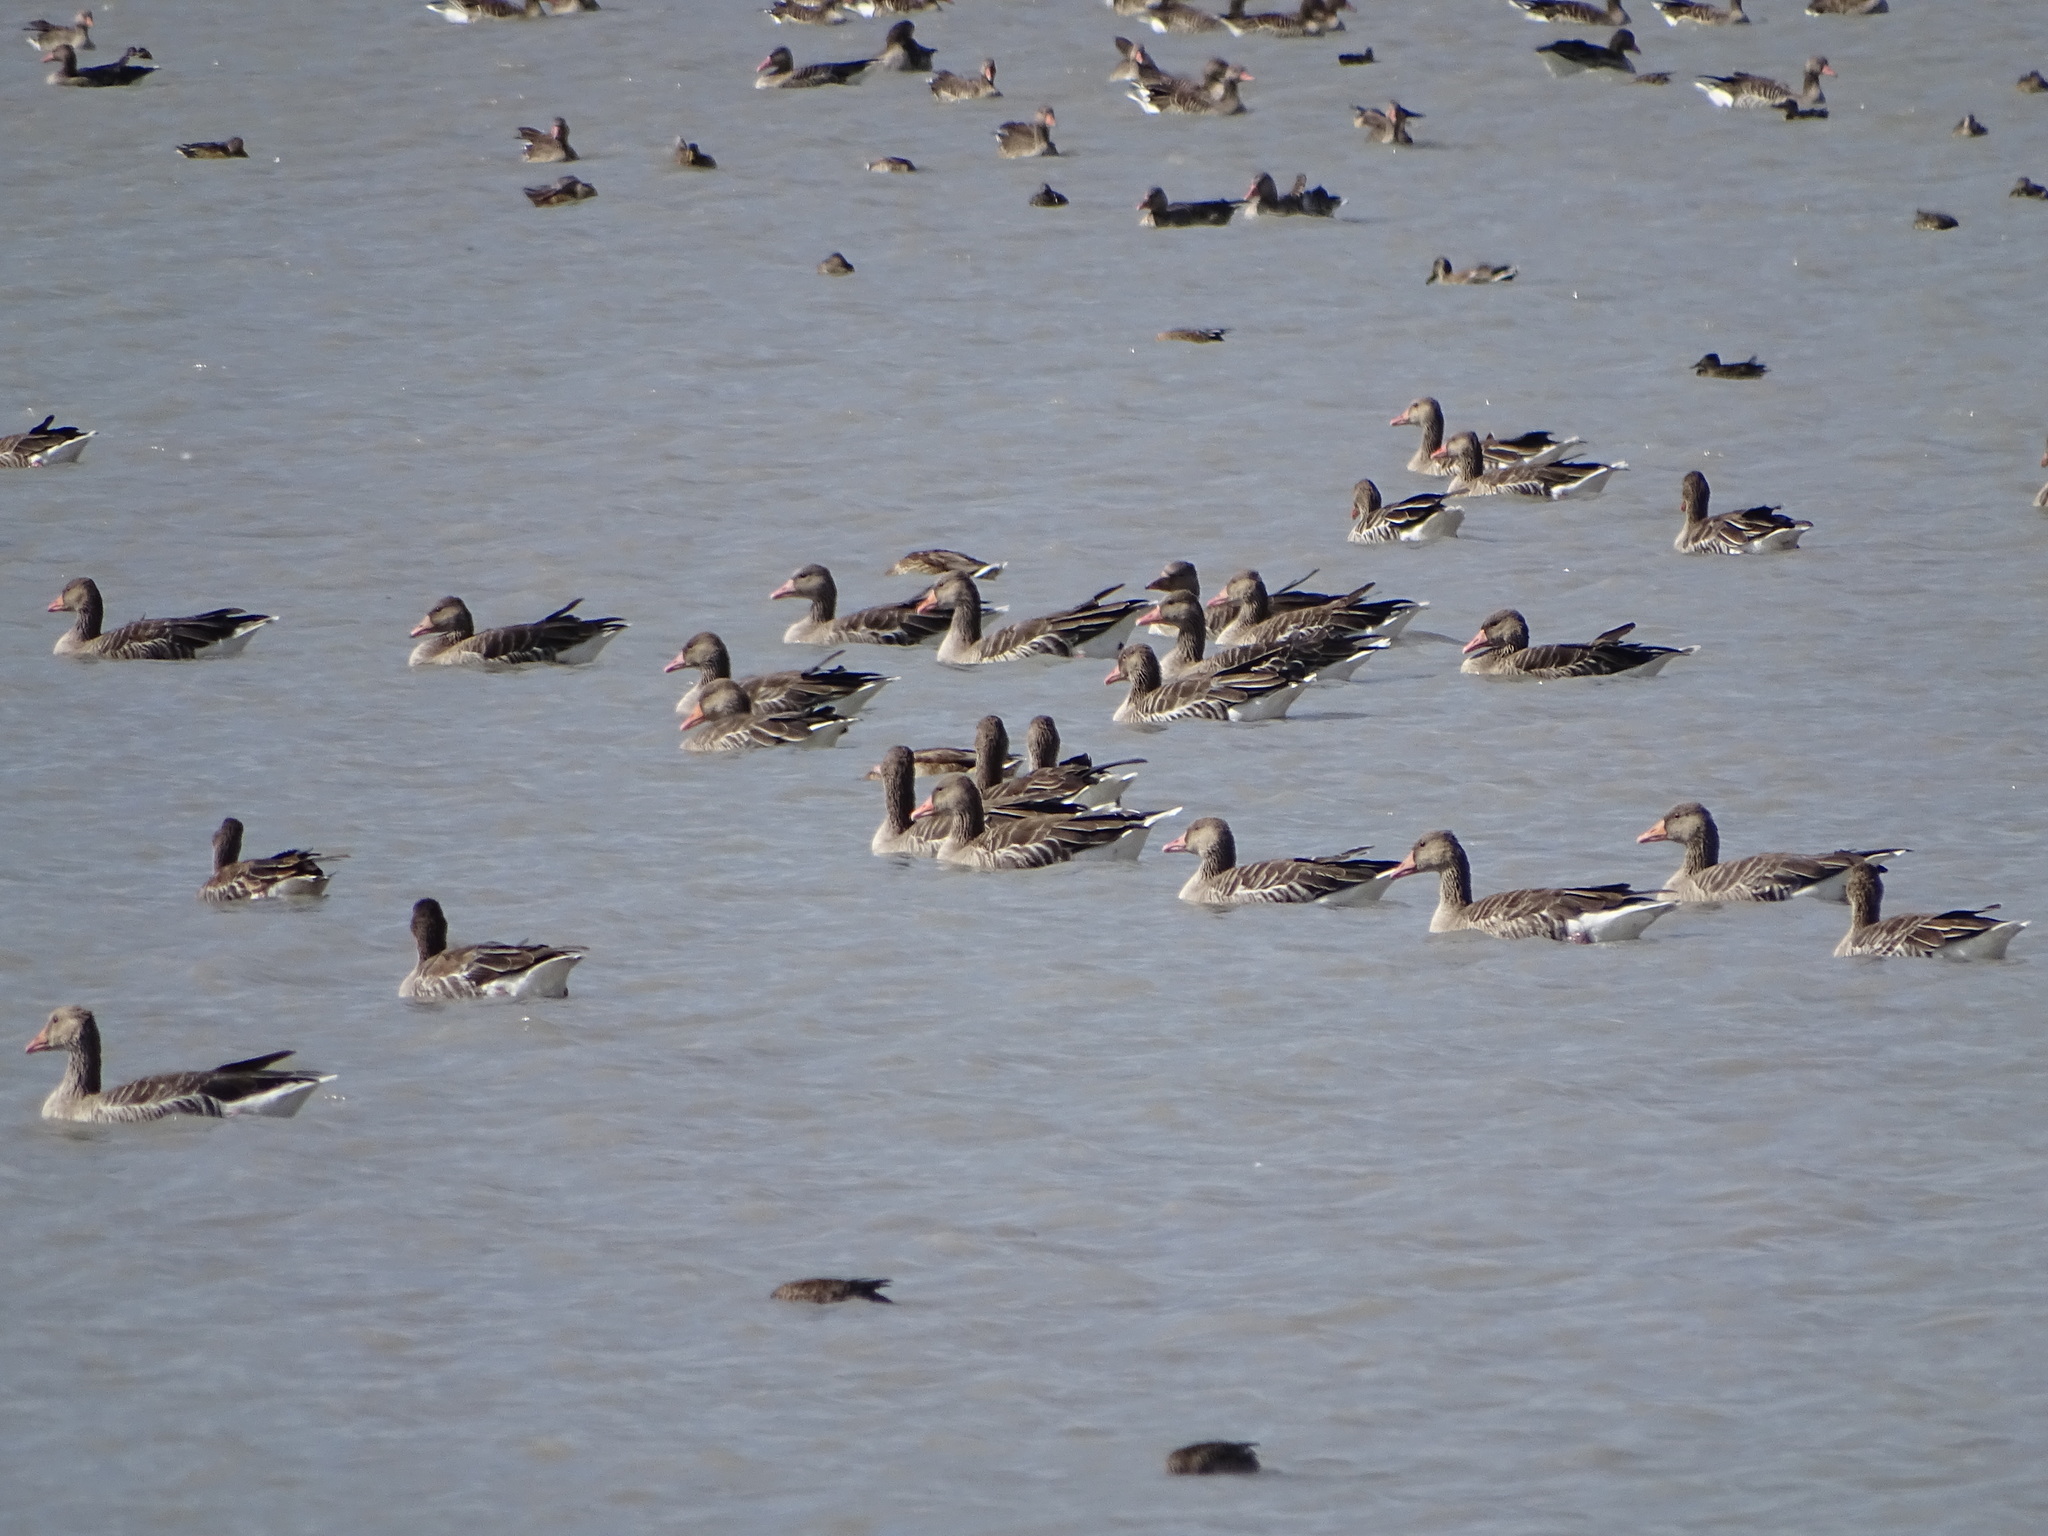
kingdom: Animalia
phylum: Chordata
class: Aves
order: Anseriformes
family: Anatidae
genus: Anser
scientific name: Anser anser
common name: Greylag goose
